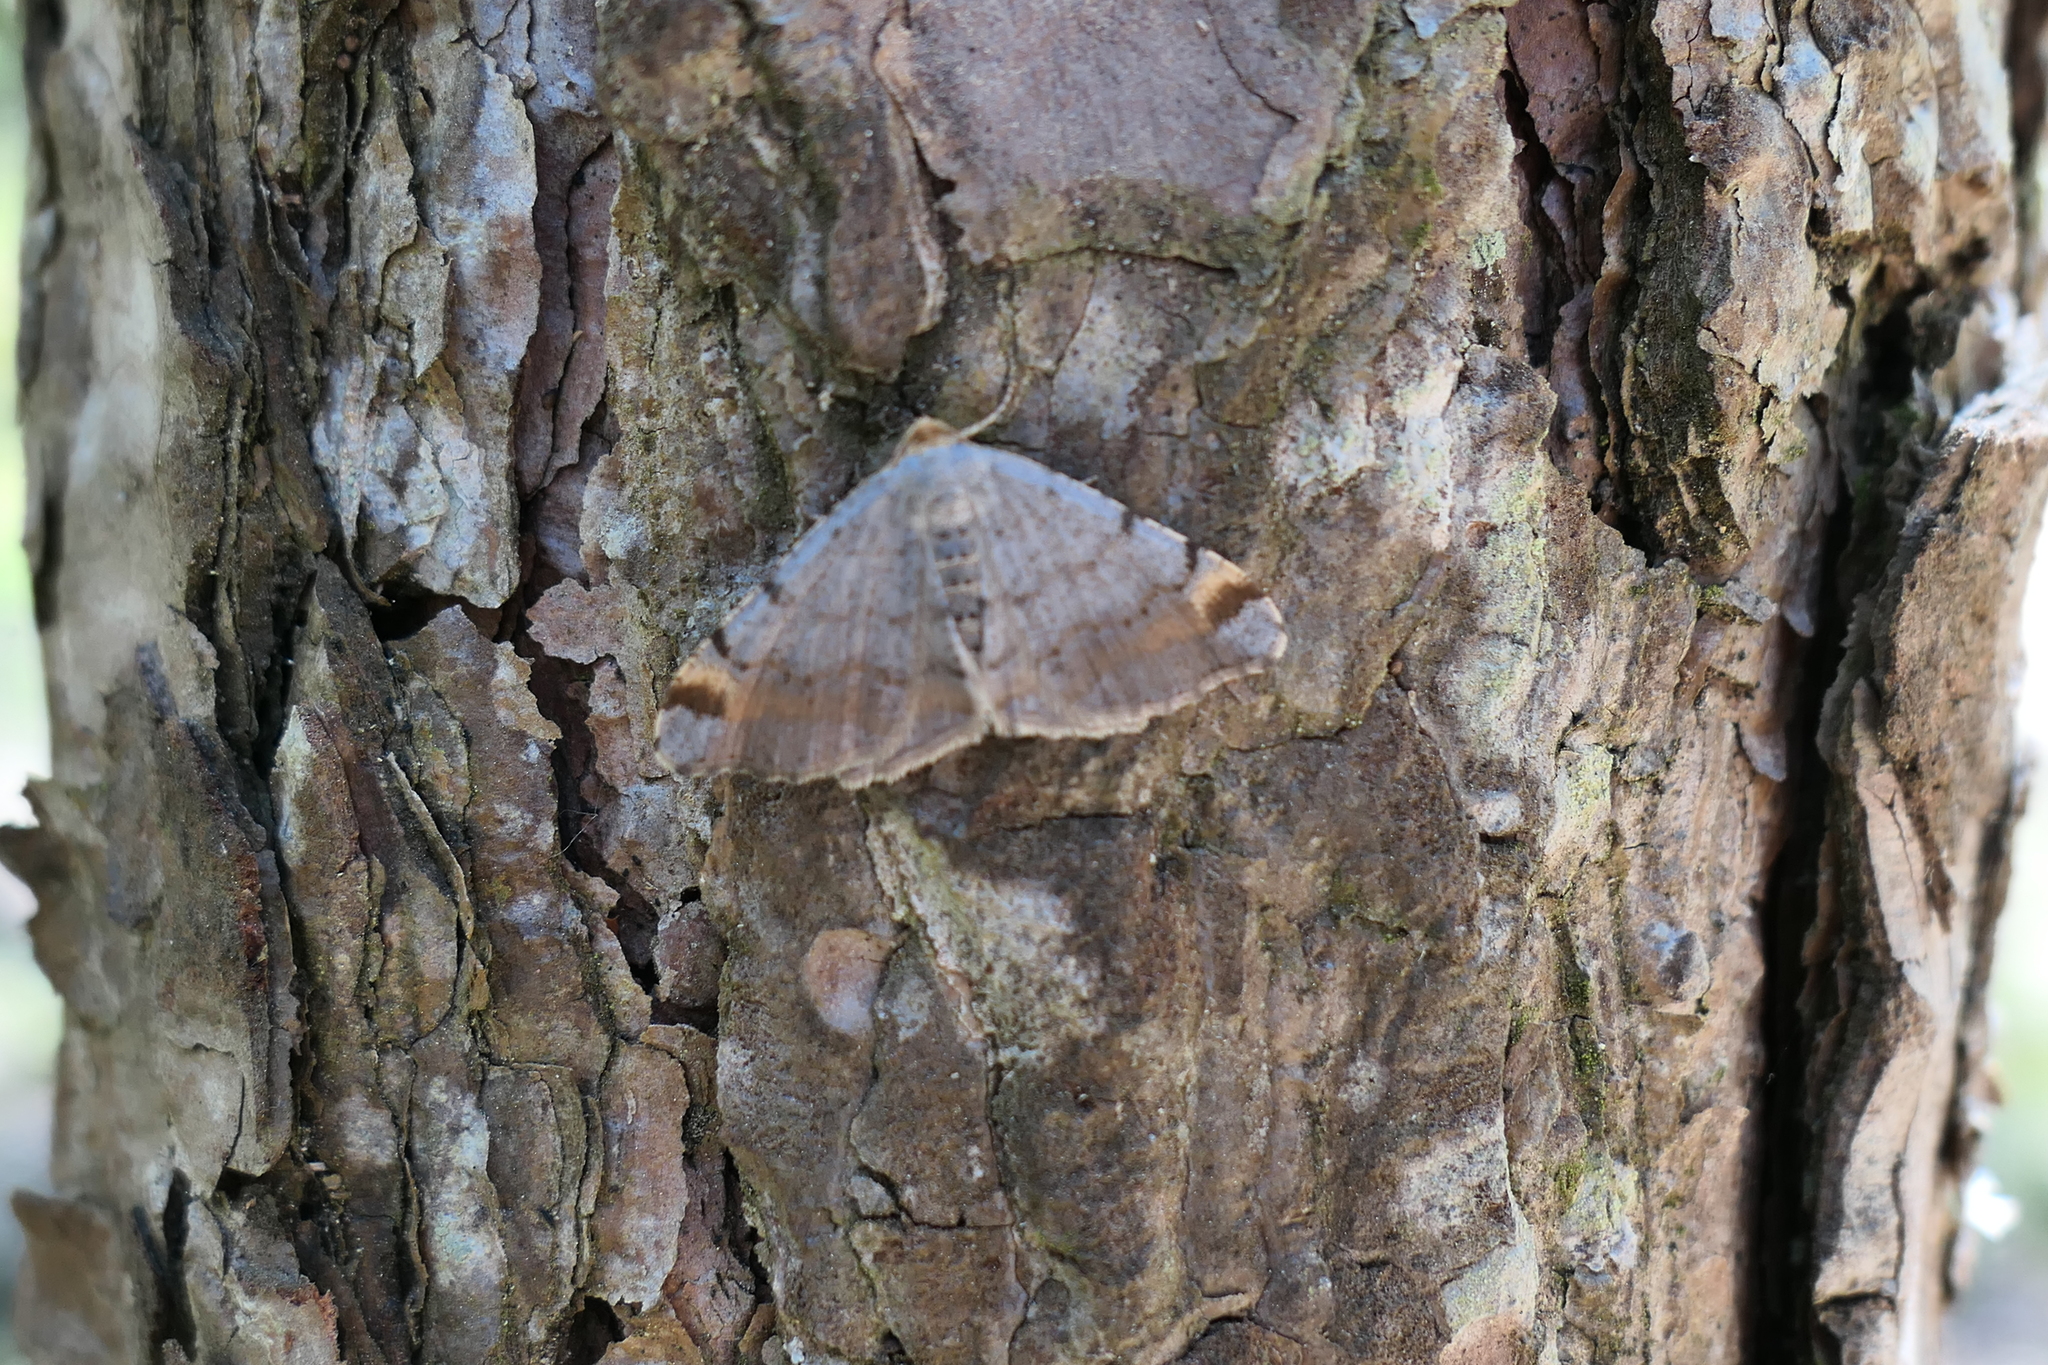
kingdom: Animalia
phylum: Arthropoda
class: Insecta
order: Lepidoptera
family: Geometridae
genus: Macaria
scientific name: Macaria liturata
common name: Tawny-barred angle
